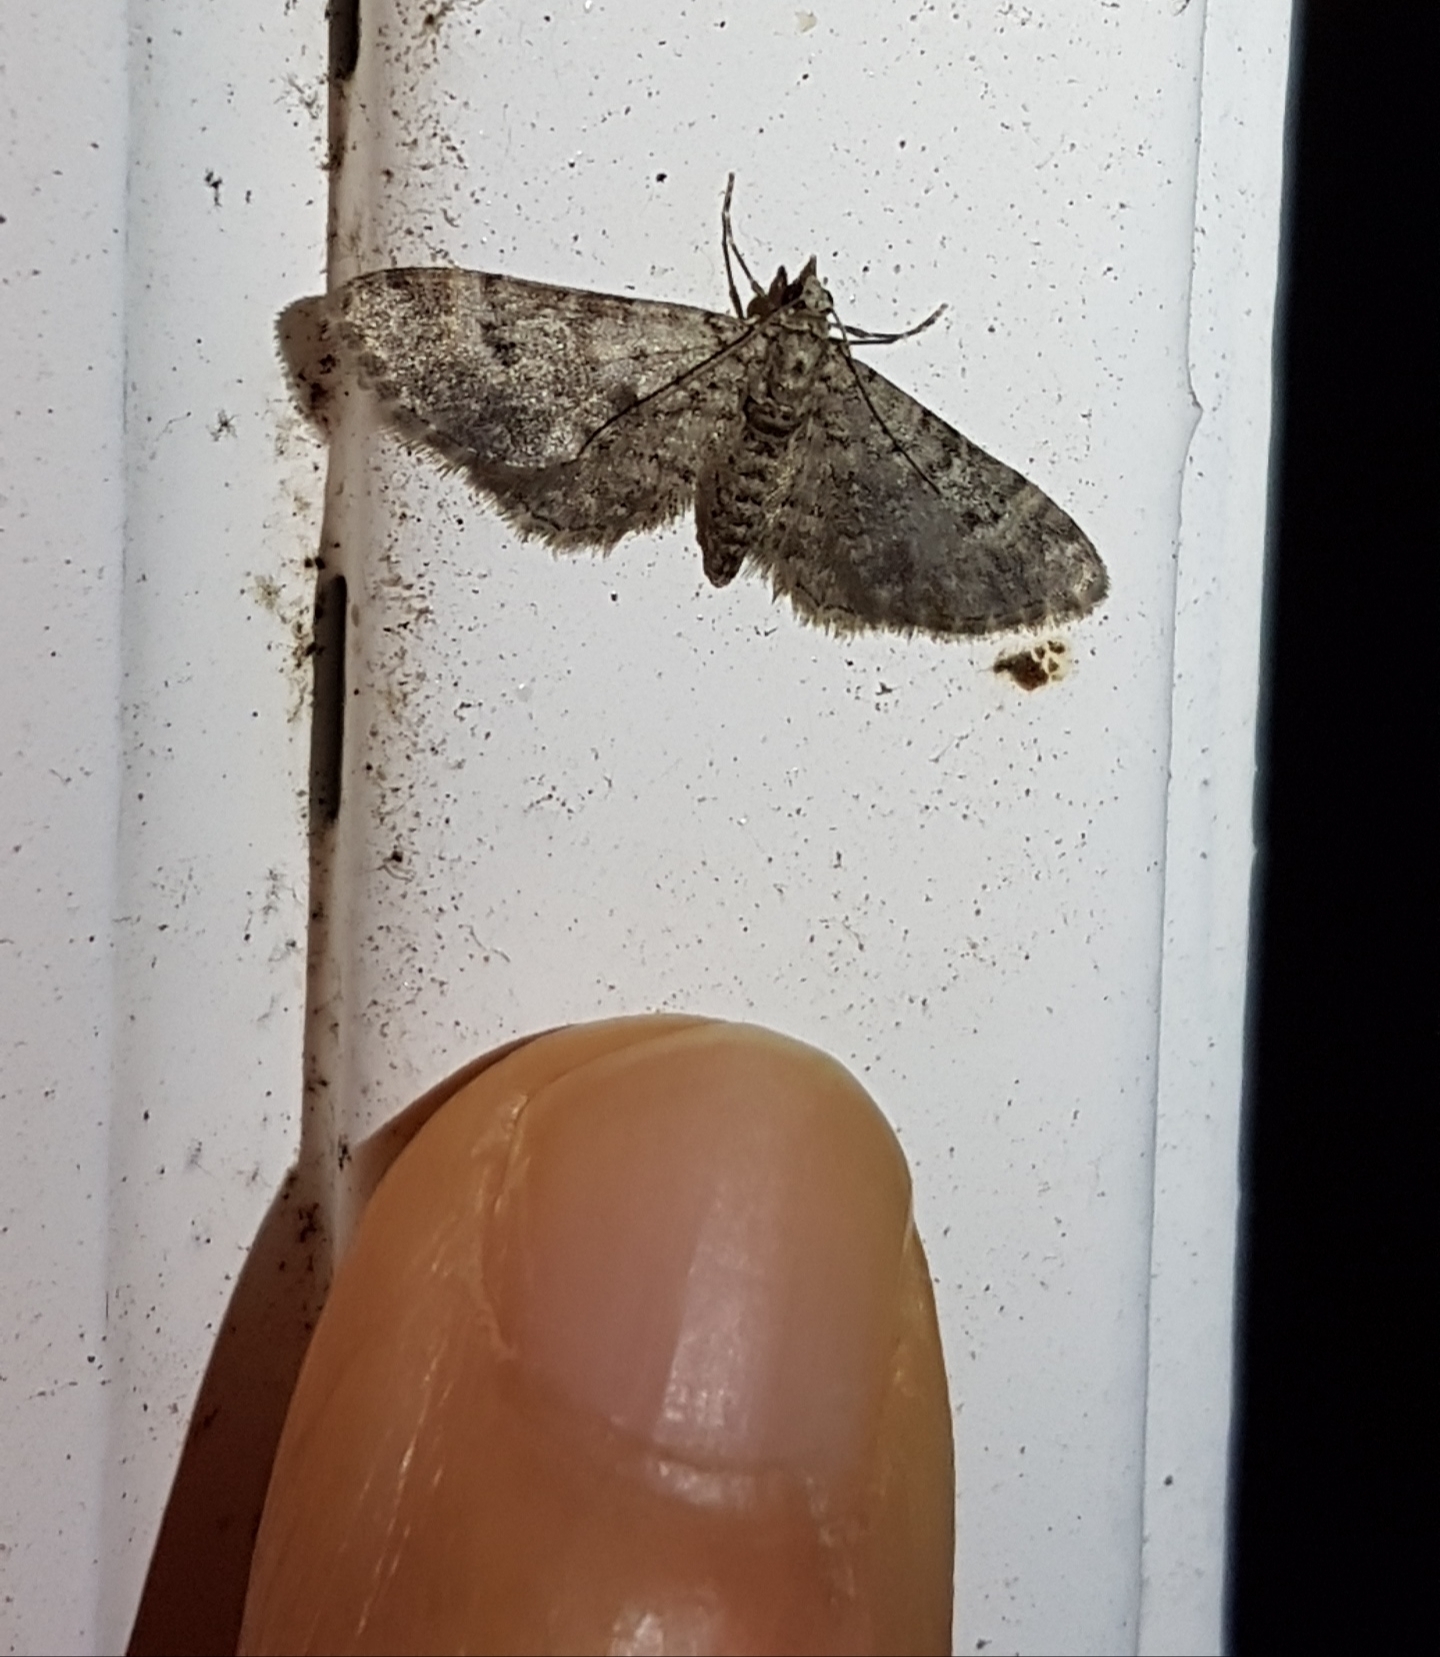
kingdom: Animalia
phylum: Arthropoda
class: Insecta
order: Lepidoptera
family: Geometridae
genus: Gymnoscelis
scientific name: Gymnoscelis rufifasciata
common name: Double-striped pug
